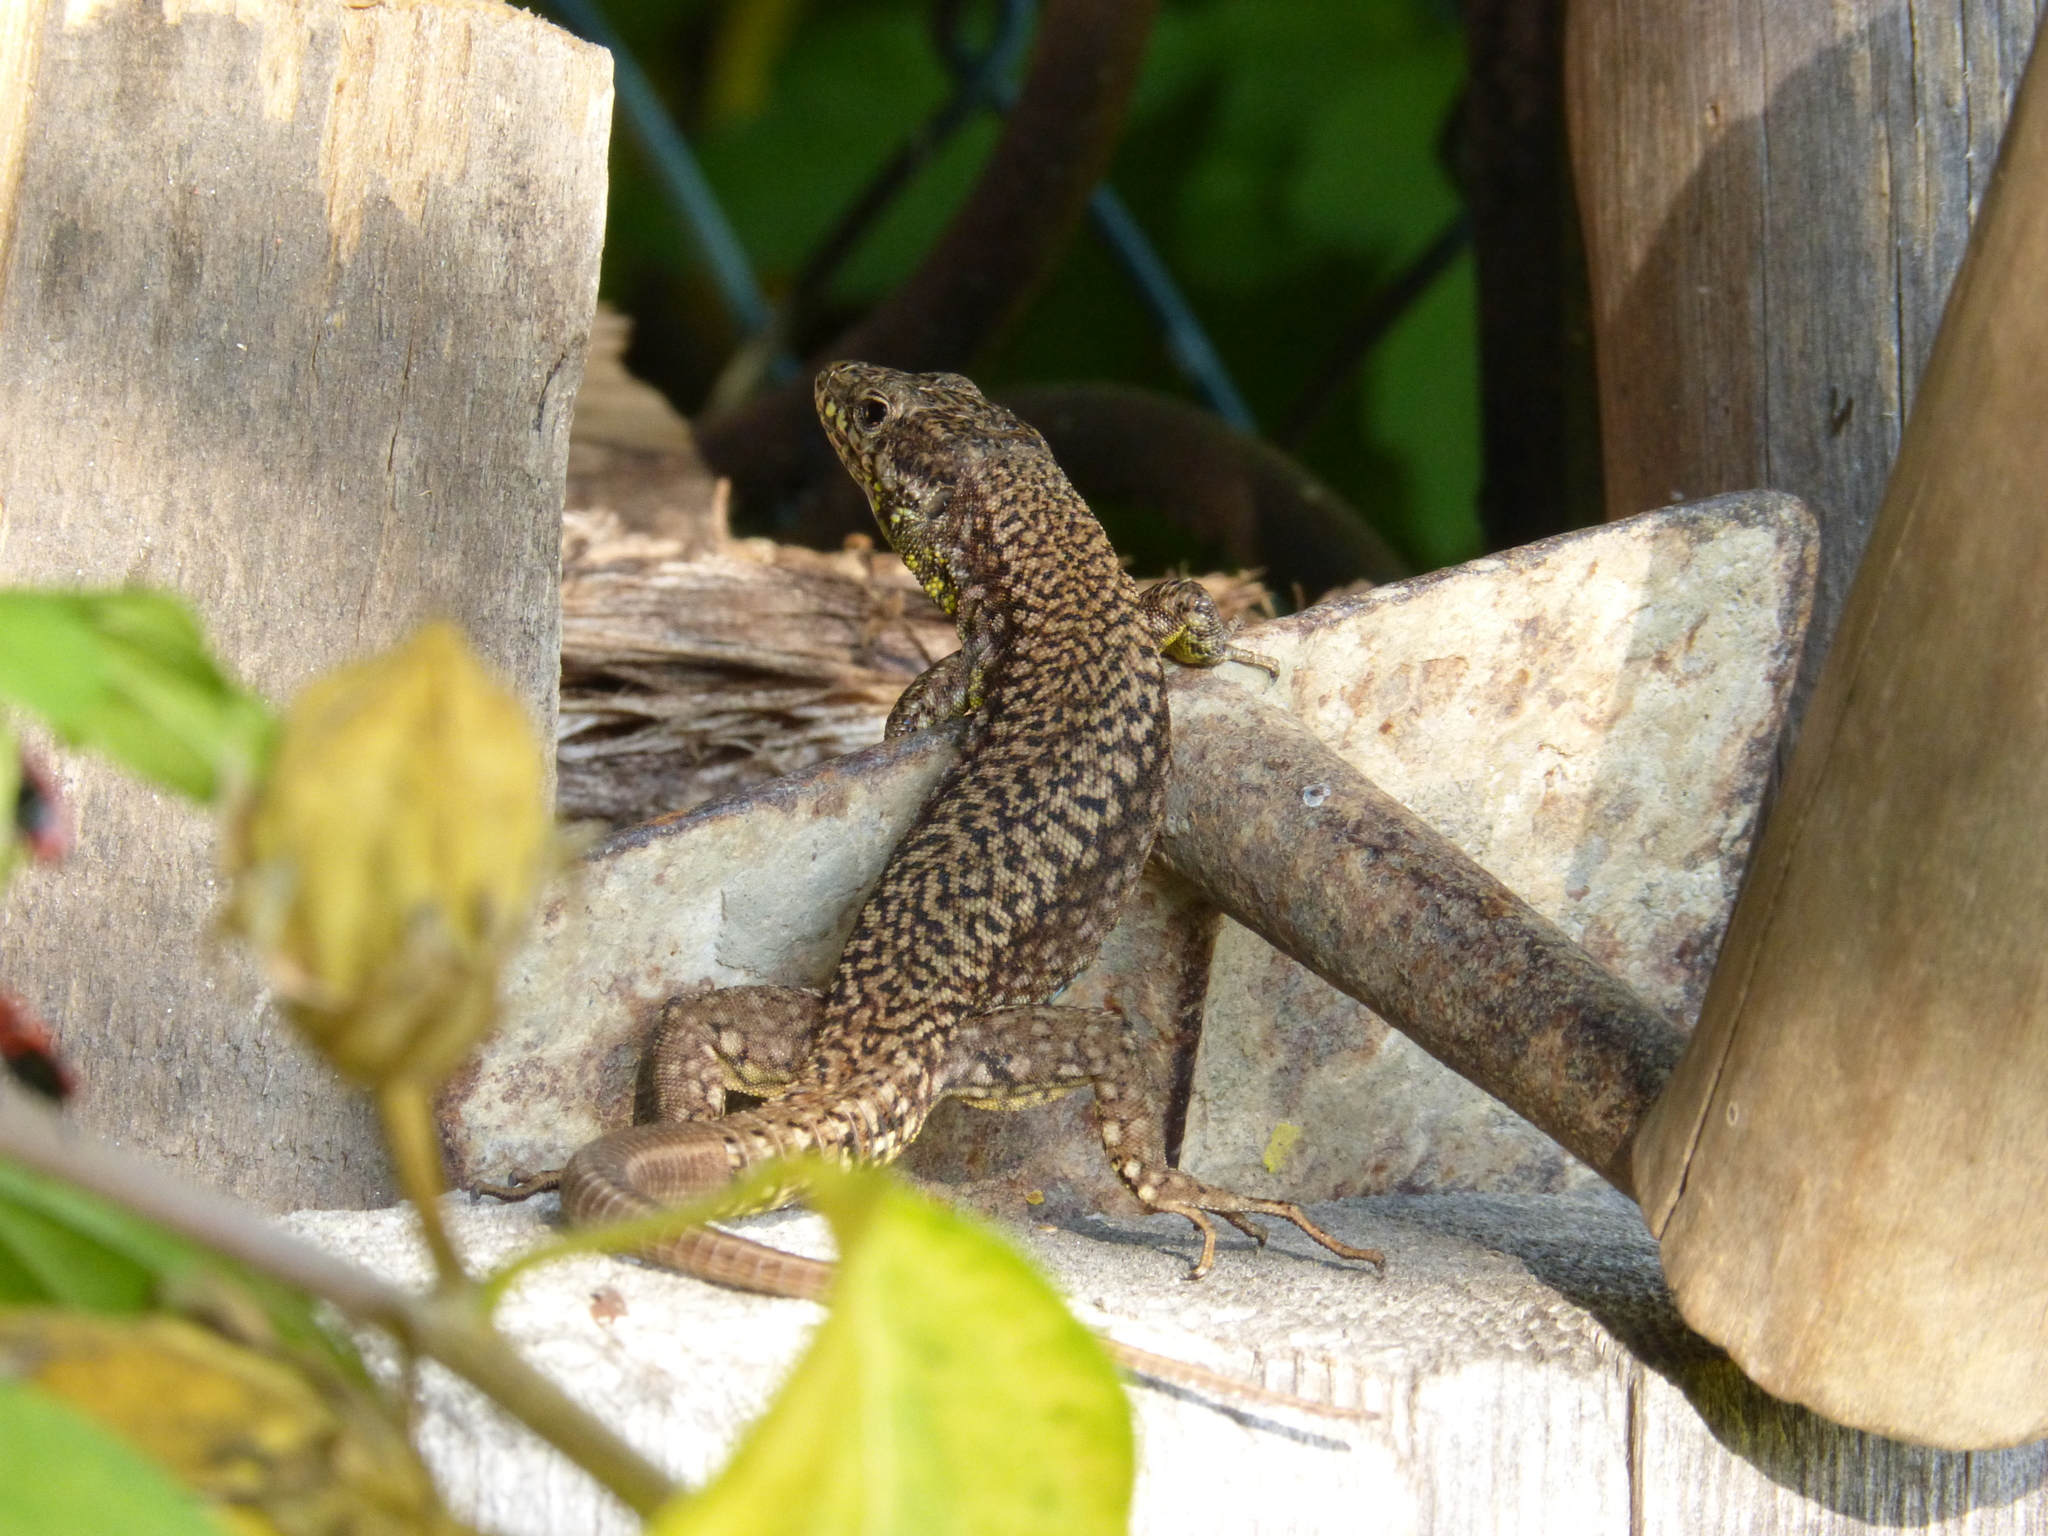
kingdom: Animalia
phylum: Chordata
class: Squamata
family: Lacertidae
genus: Podarcis
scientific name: Podarcis muralis
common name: Common wall lizard
